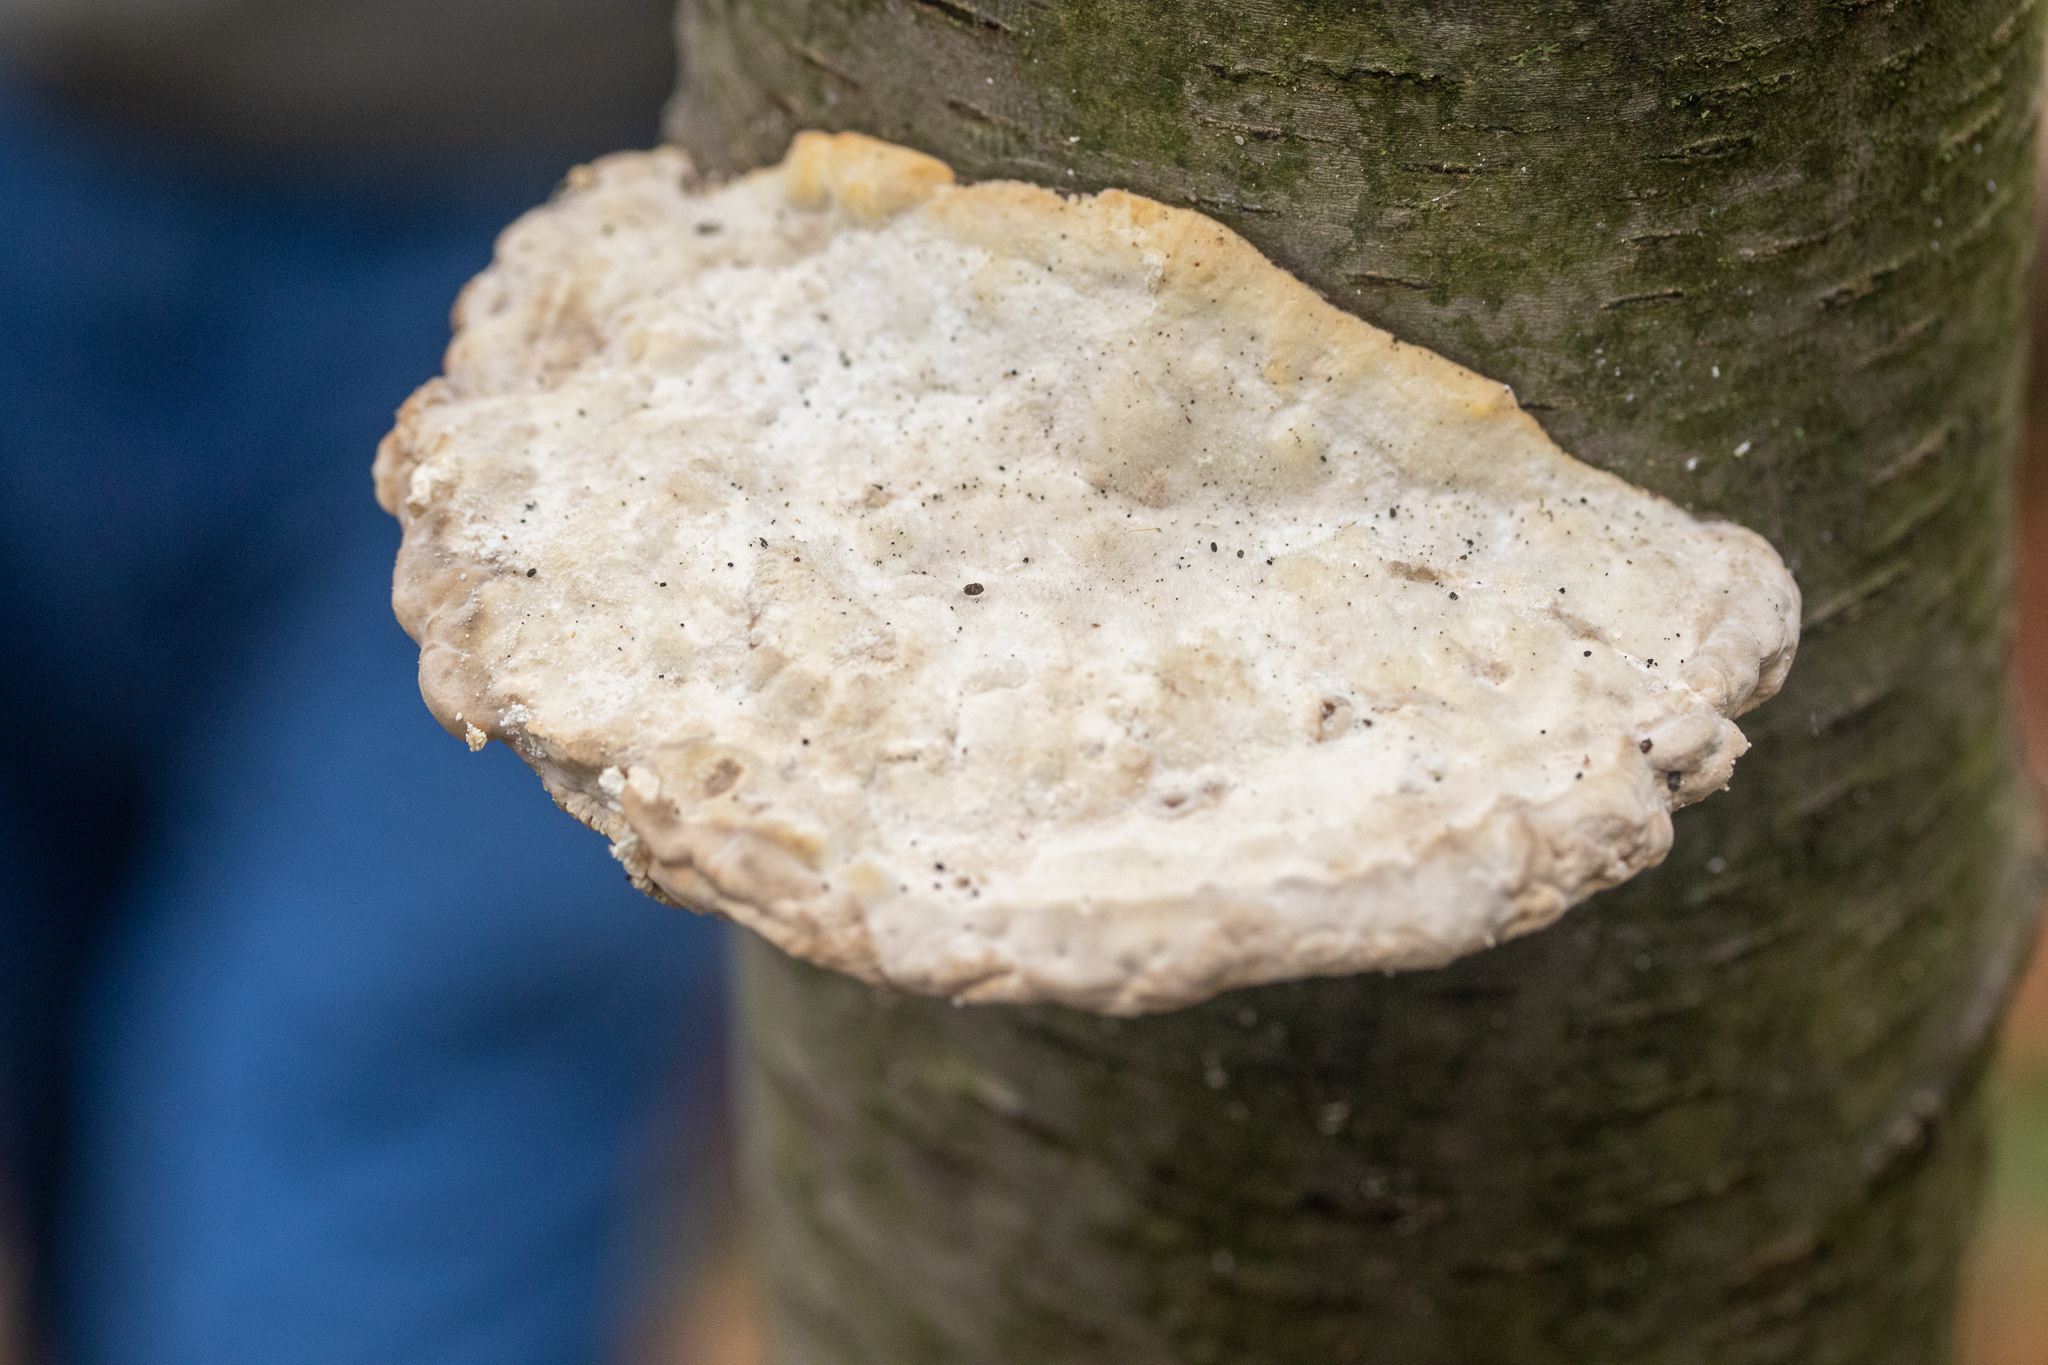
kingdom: Fungi
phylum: Basidiomycota
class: Agaricomycetes
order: Polyporales
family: Polyporaceae
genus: Trametes
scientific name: Trametes gibbosa
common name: Lumpy bracket
